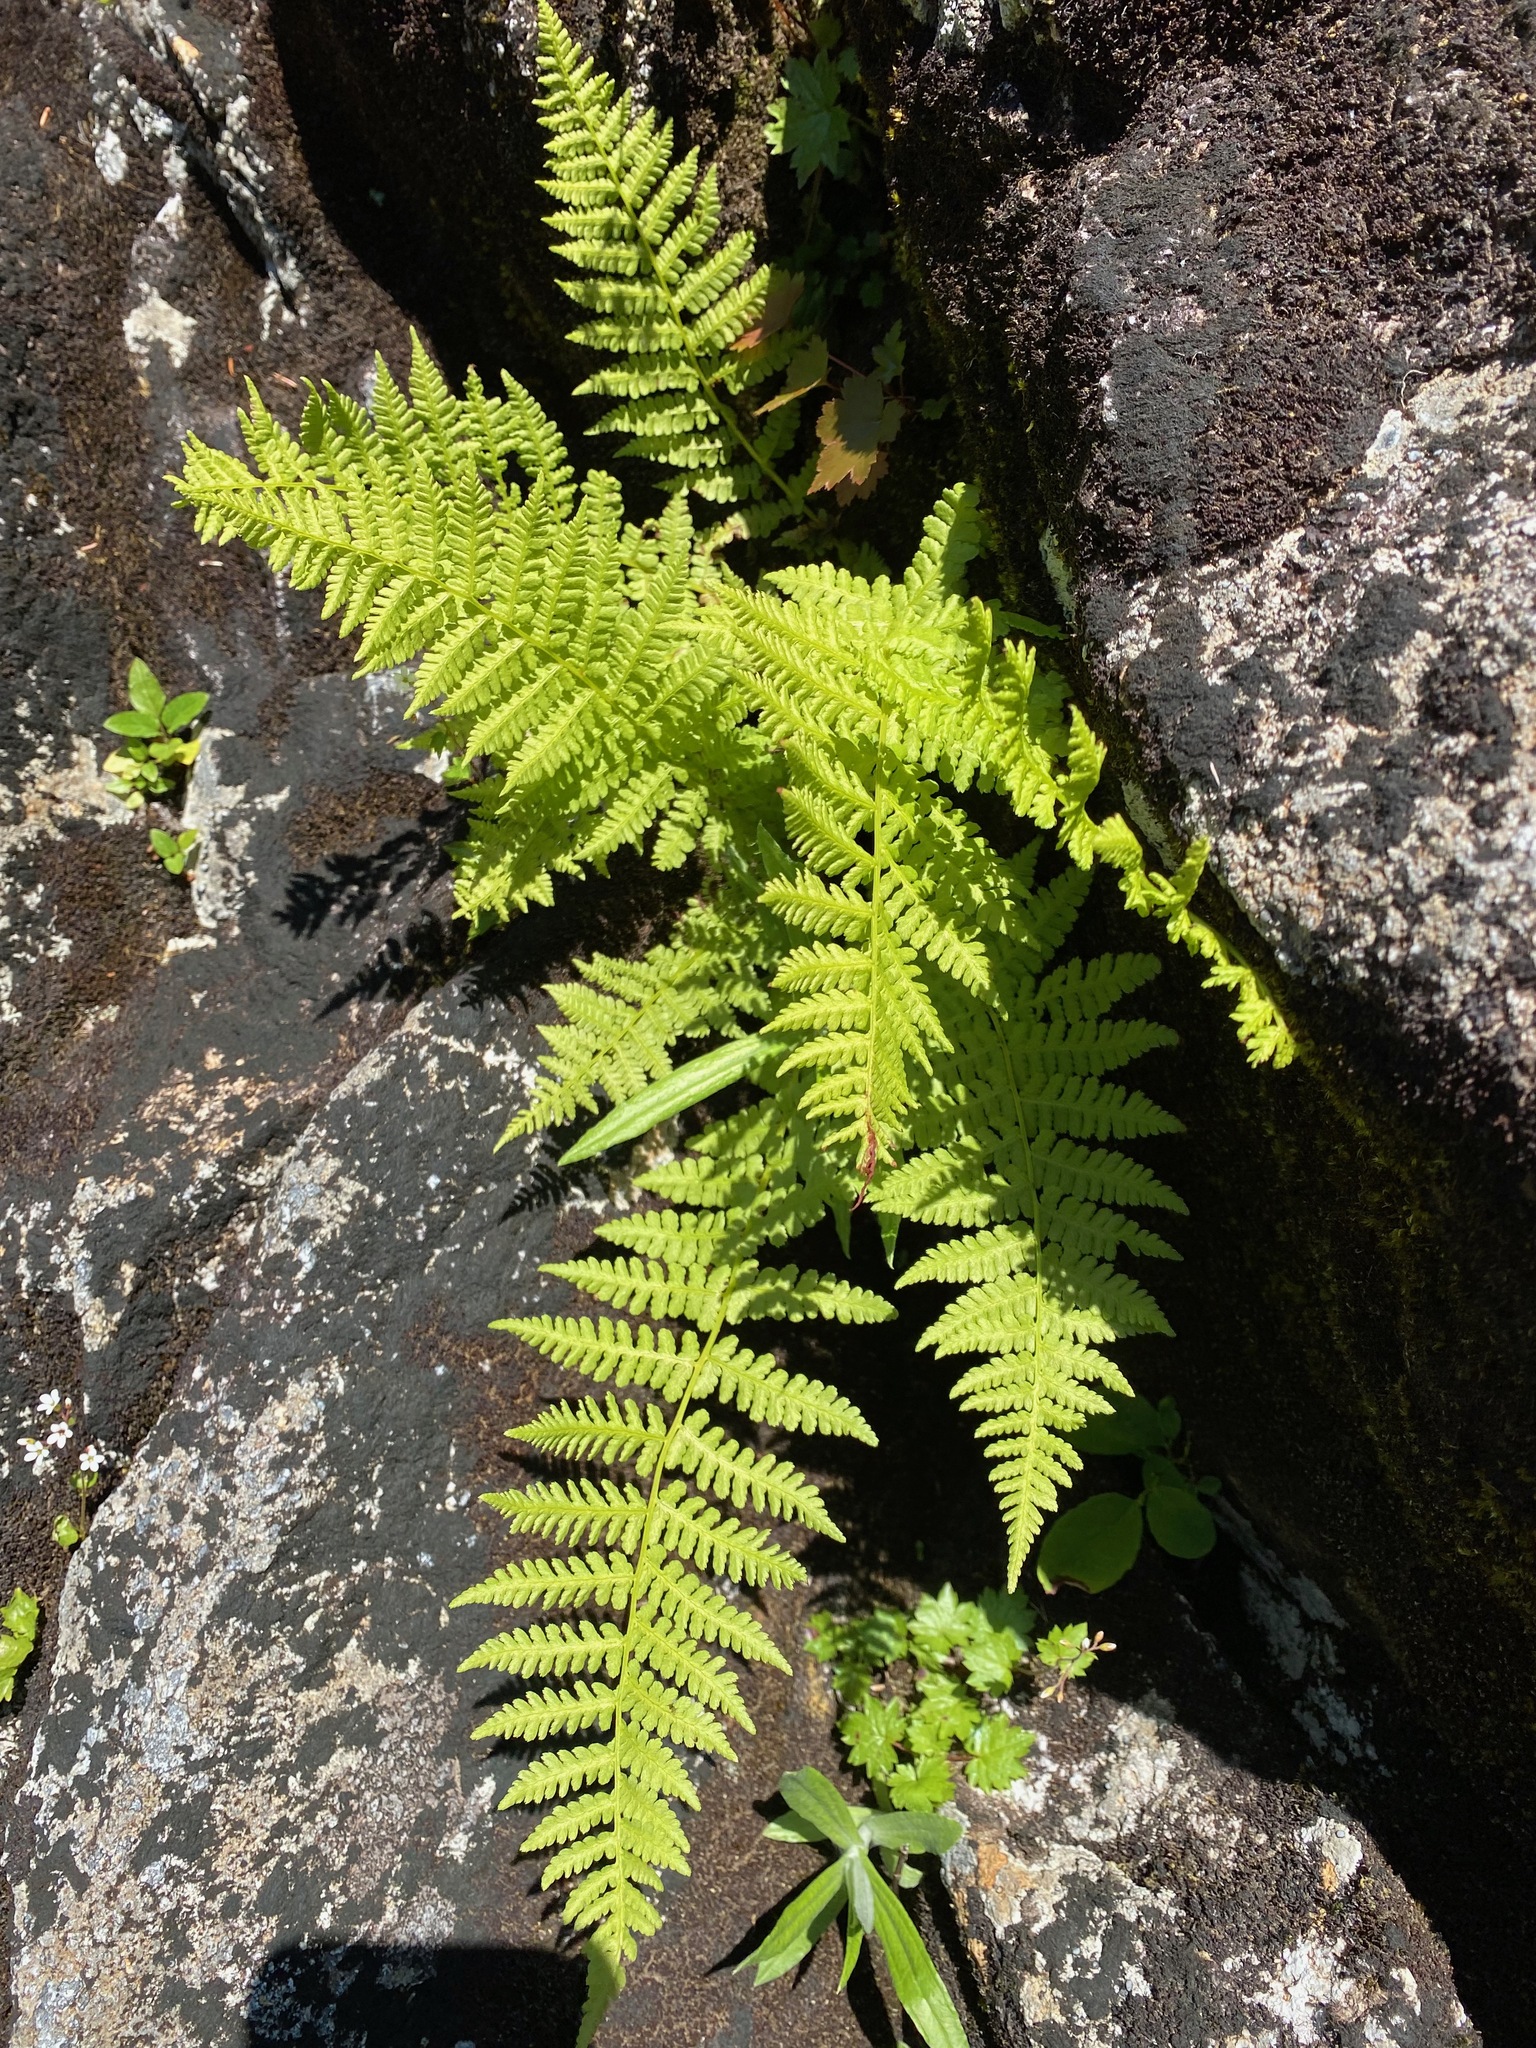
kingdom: Plantae
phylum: Tracheophyta
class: Polypodiopsida
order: Polypodiales
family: Athyriaceae
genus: Athyrium
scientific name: Athyrium filix-femina
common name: Lady fern
